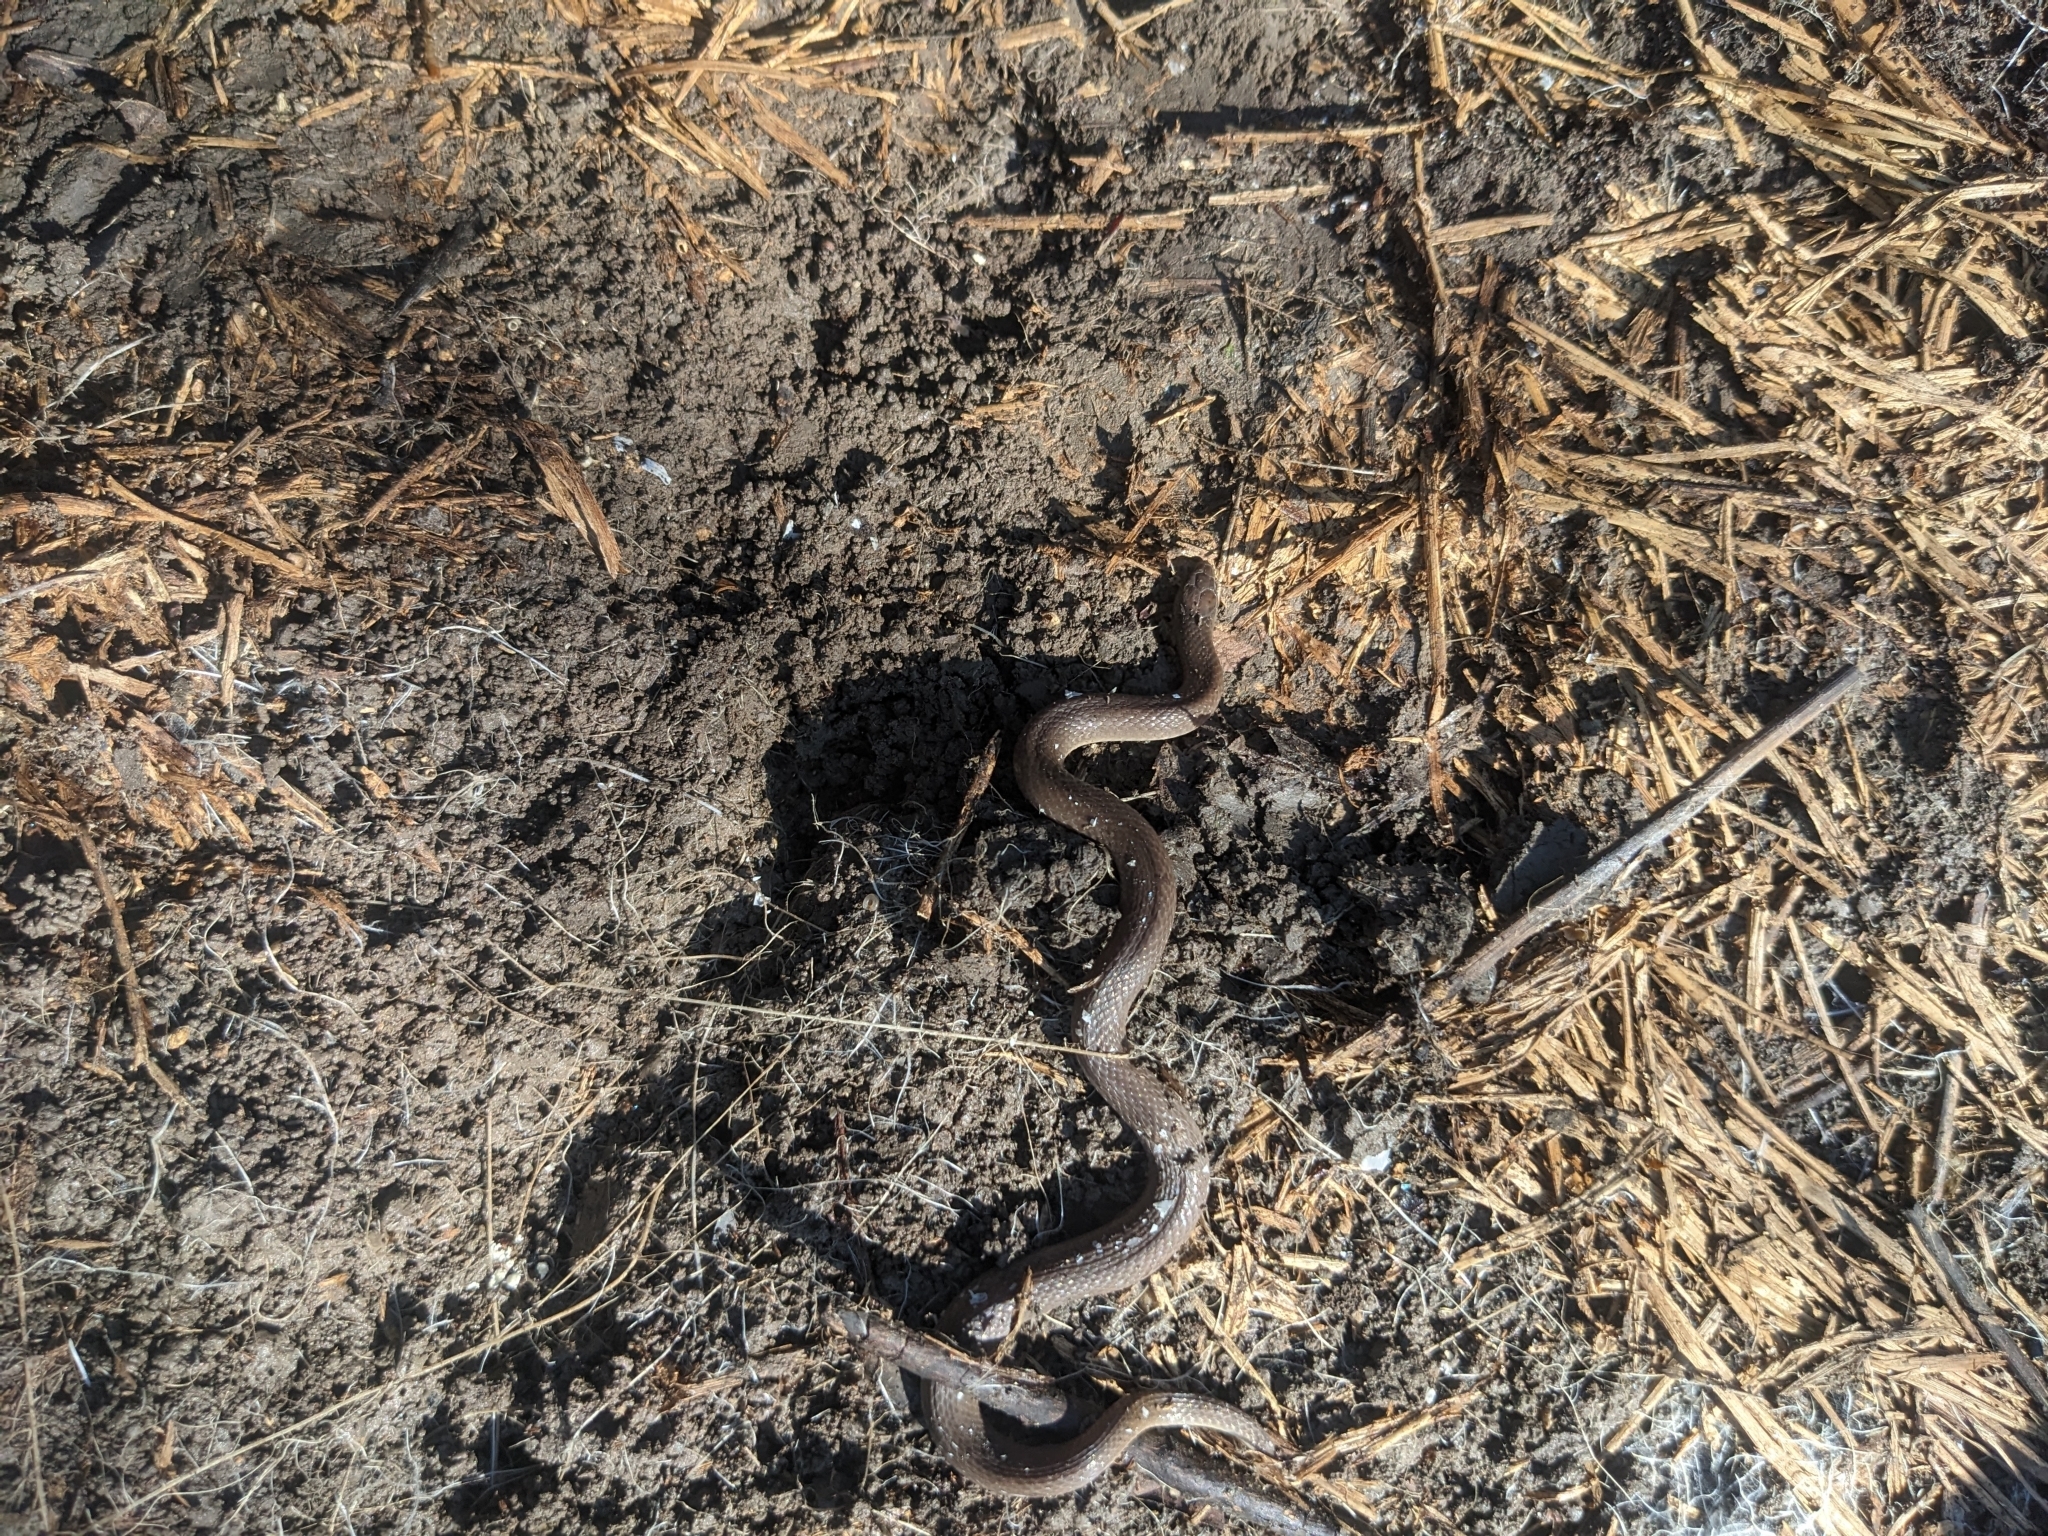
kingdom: Animalia
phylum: Chordata
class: Squamata
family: Colubridae
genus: Haldea
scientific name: Haldea striatula
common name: Rough earth snake
